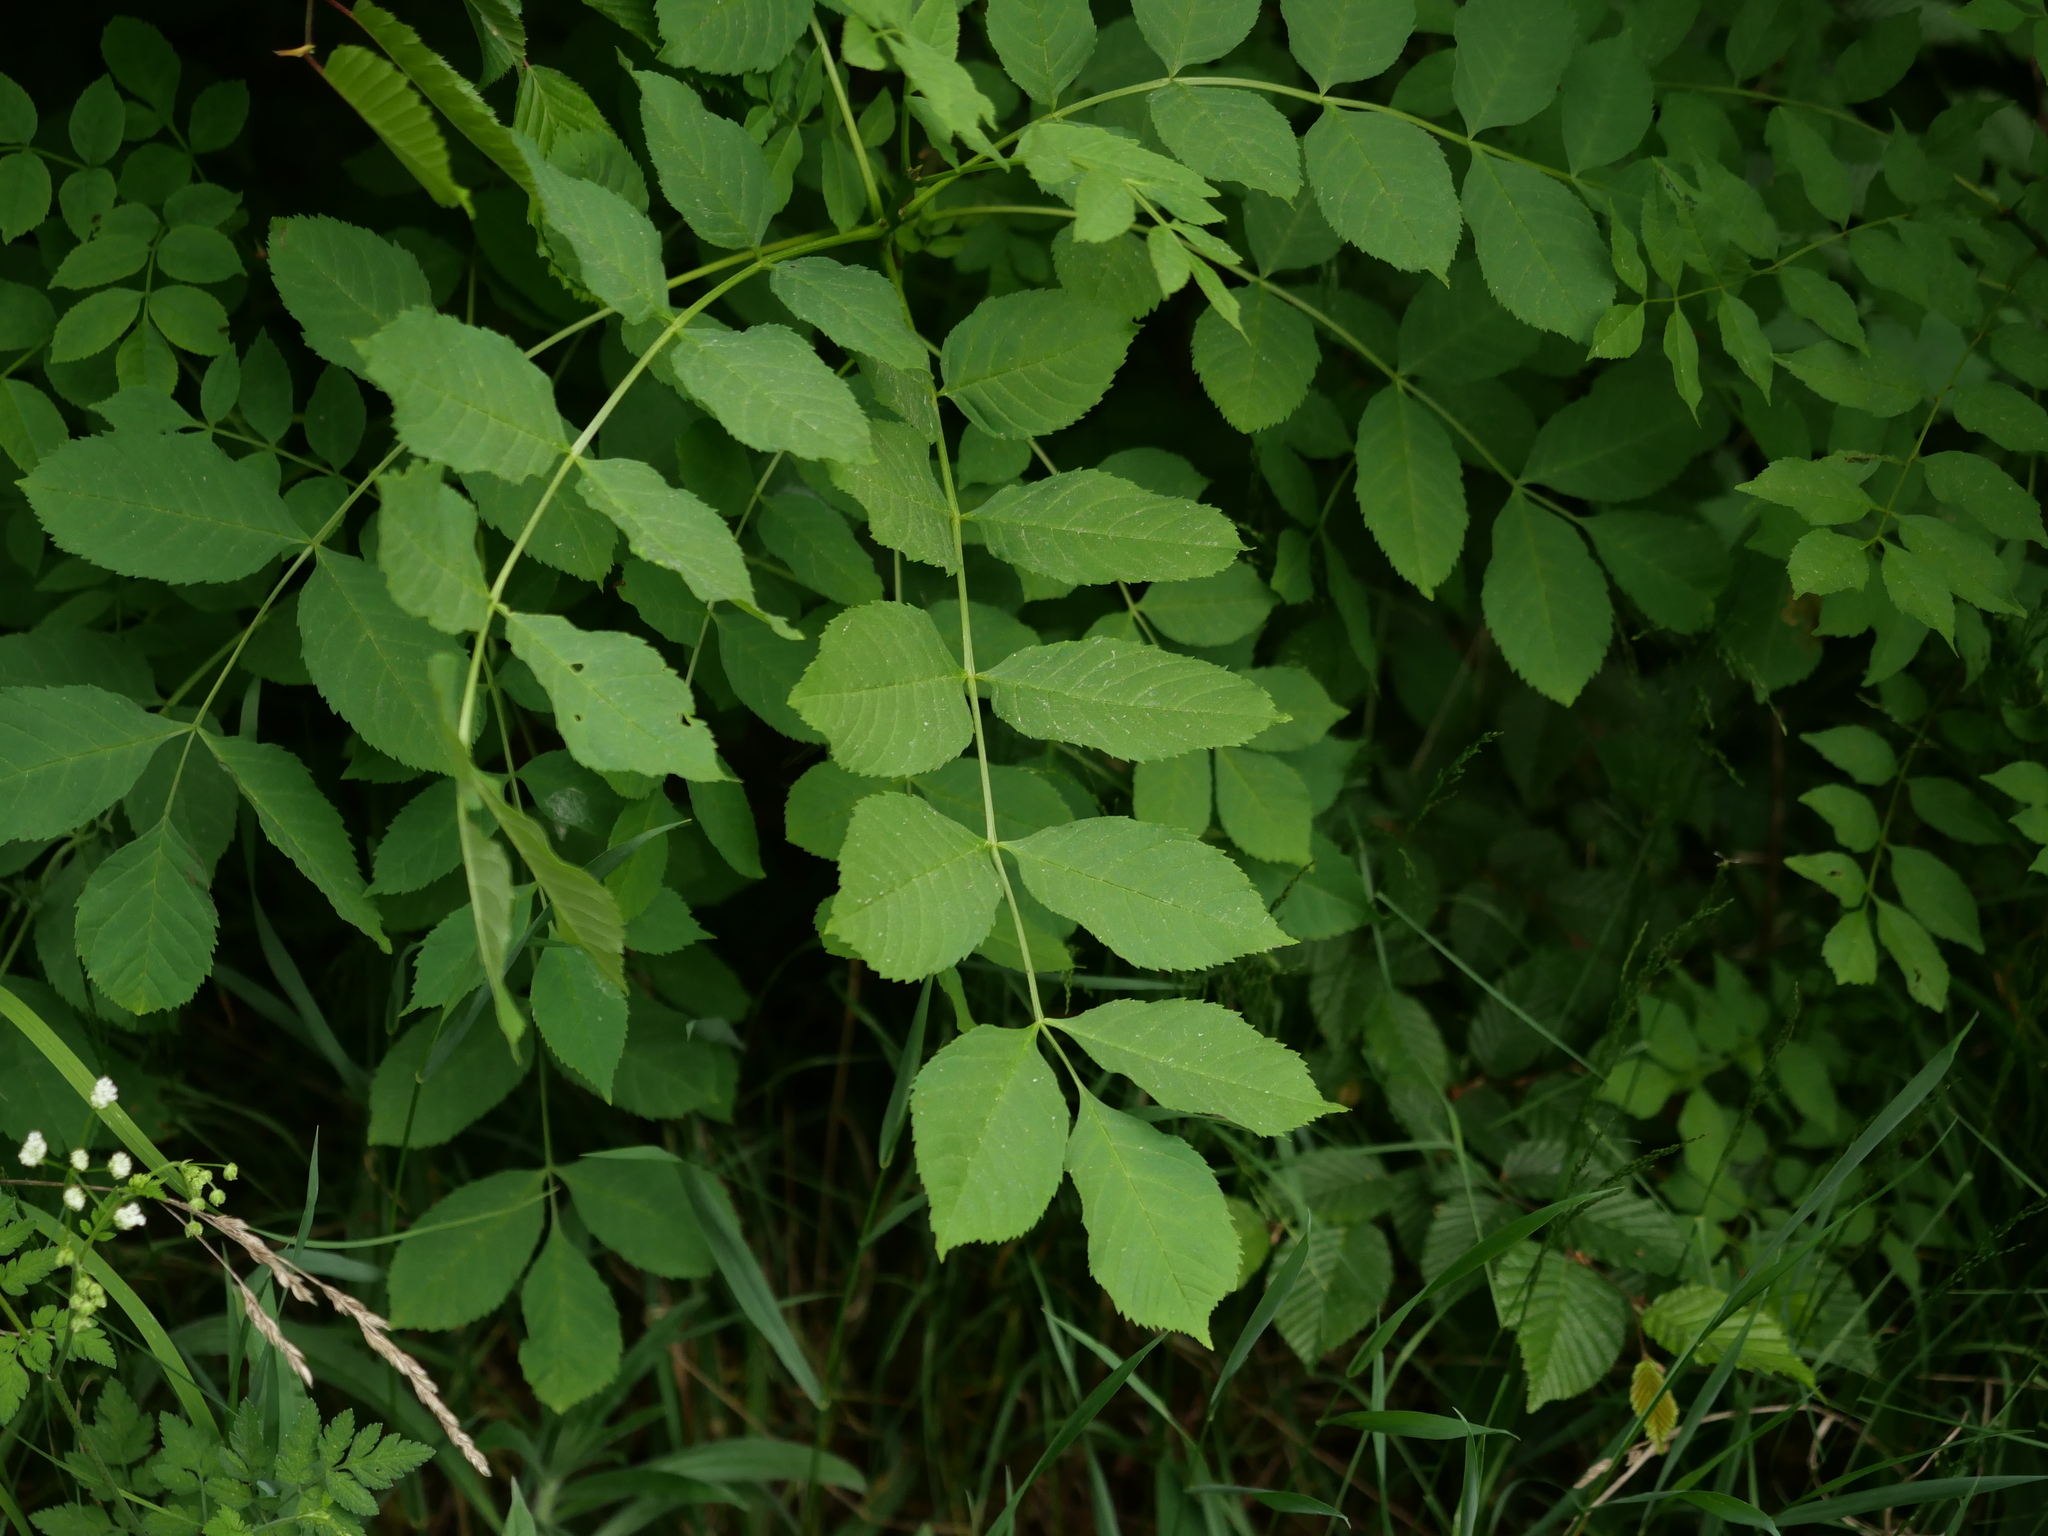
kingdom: Plantae
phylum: Tracheophyta
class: Magnoliopsida
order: Lamiales
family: Oleaceae
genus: Fraxinus
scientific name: Fraxinus excelsior
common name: European ash
